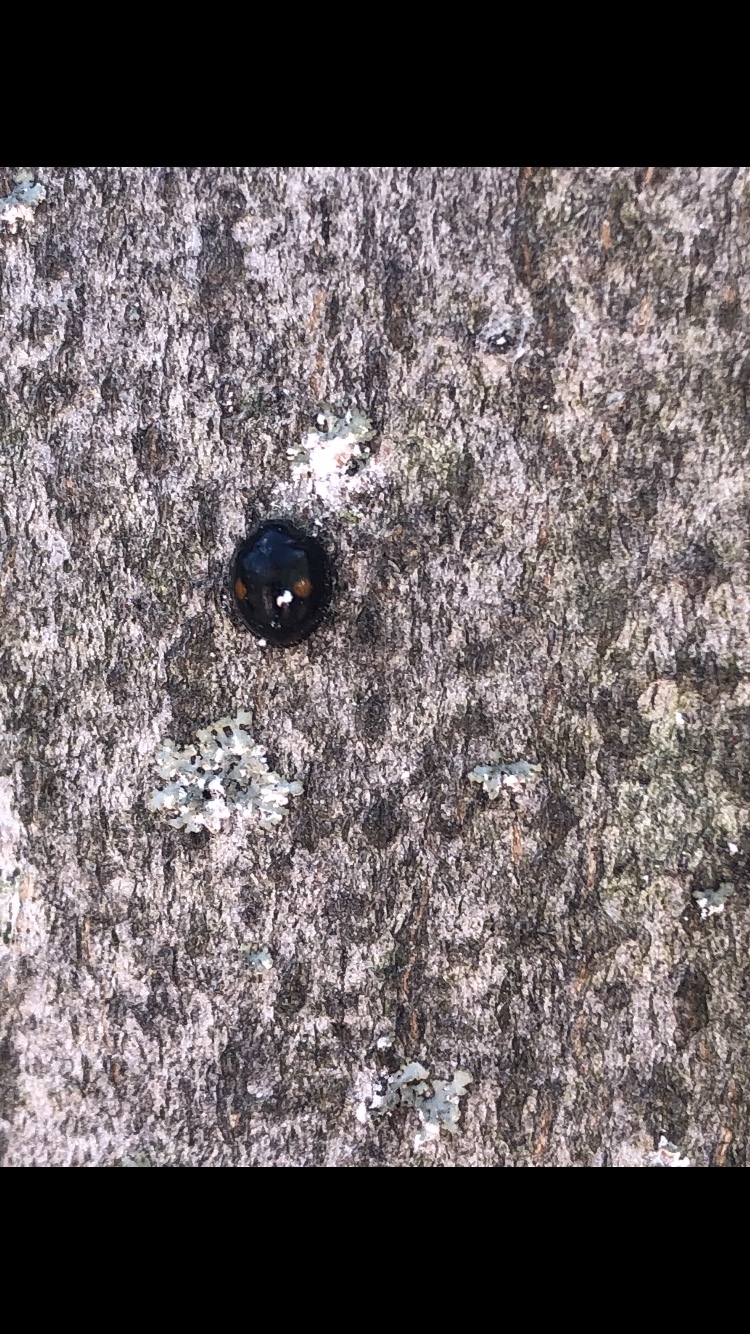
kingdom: Animalia
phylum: Arthropoda
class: Insecta
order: Coleoptera
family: Coccinellidae
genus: Chilocorus
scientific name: Chilocorus stigma
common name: Twicestabbed lady beetle
